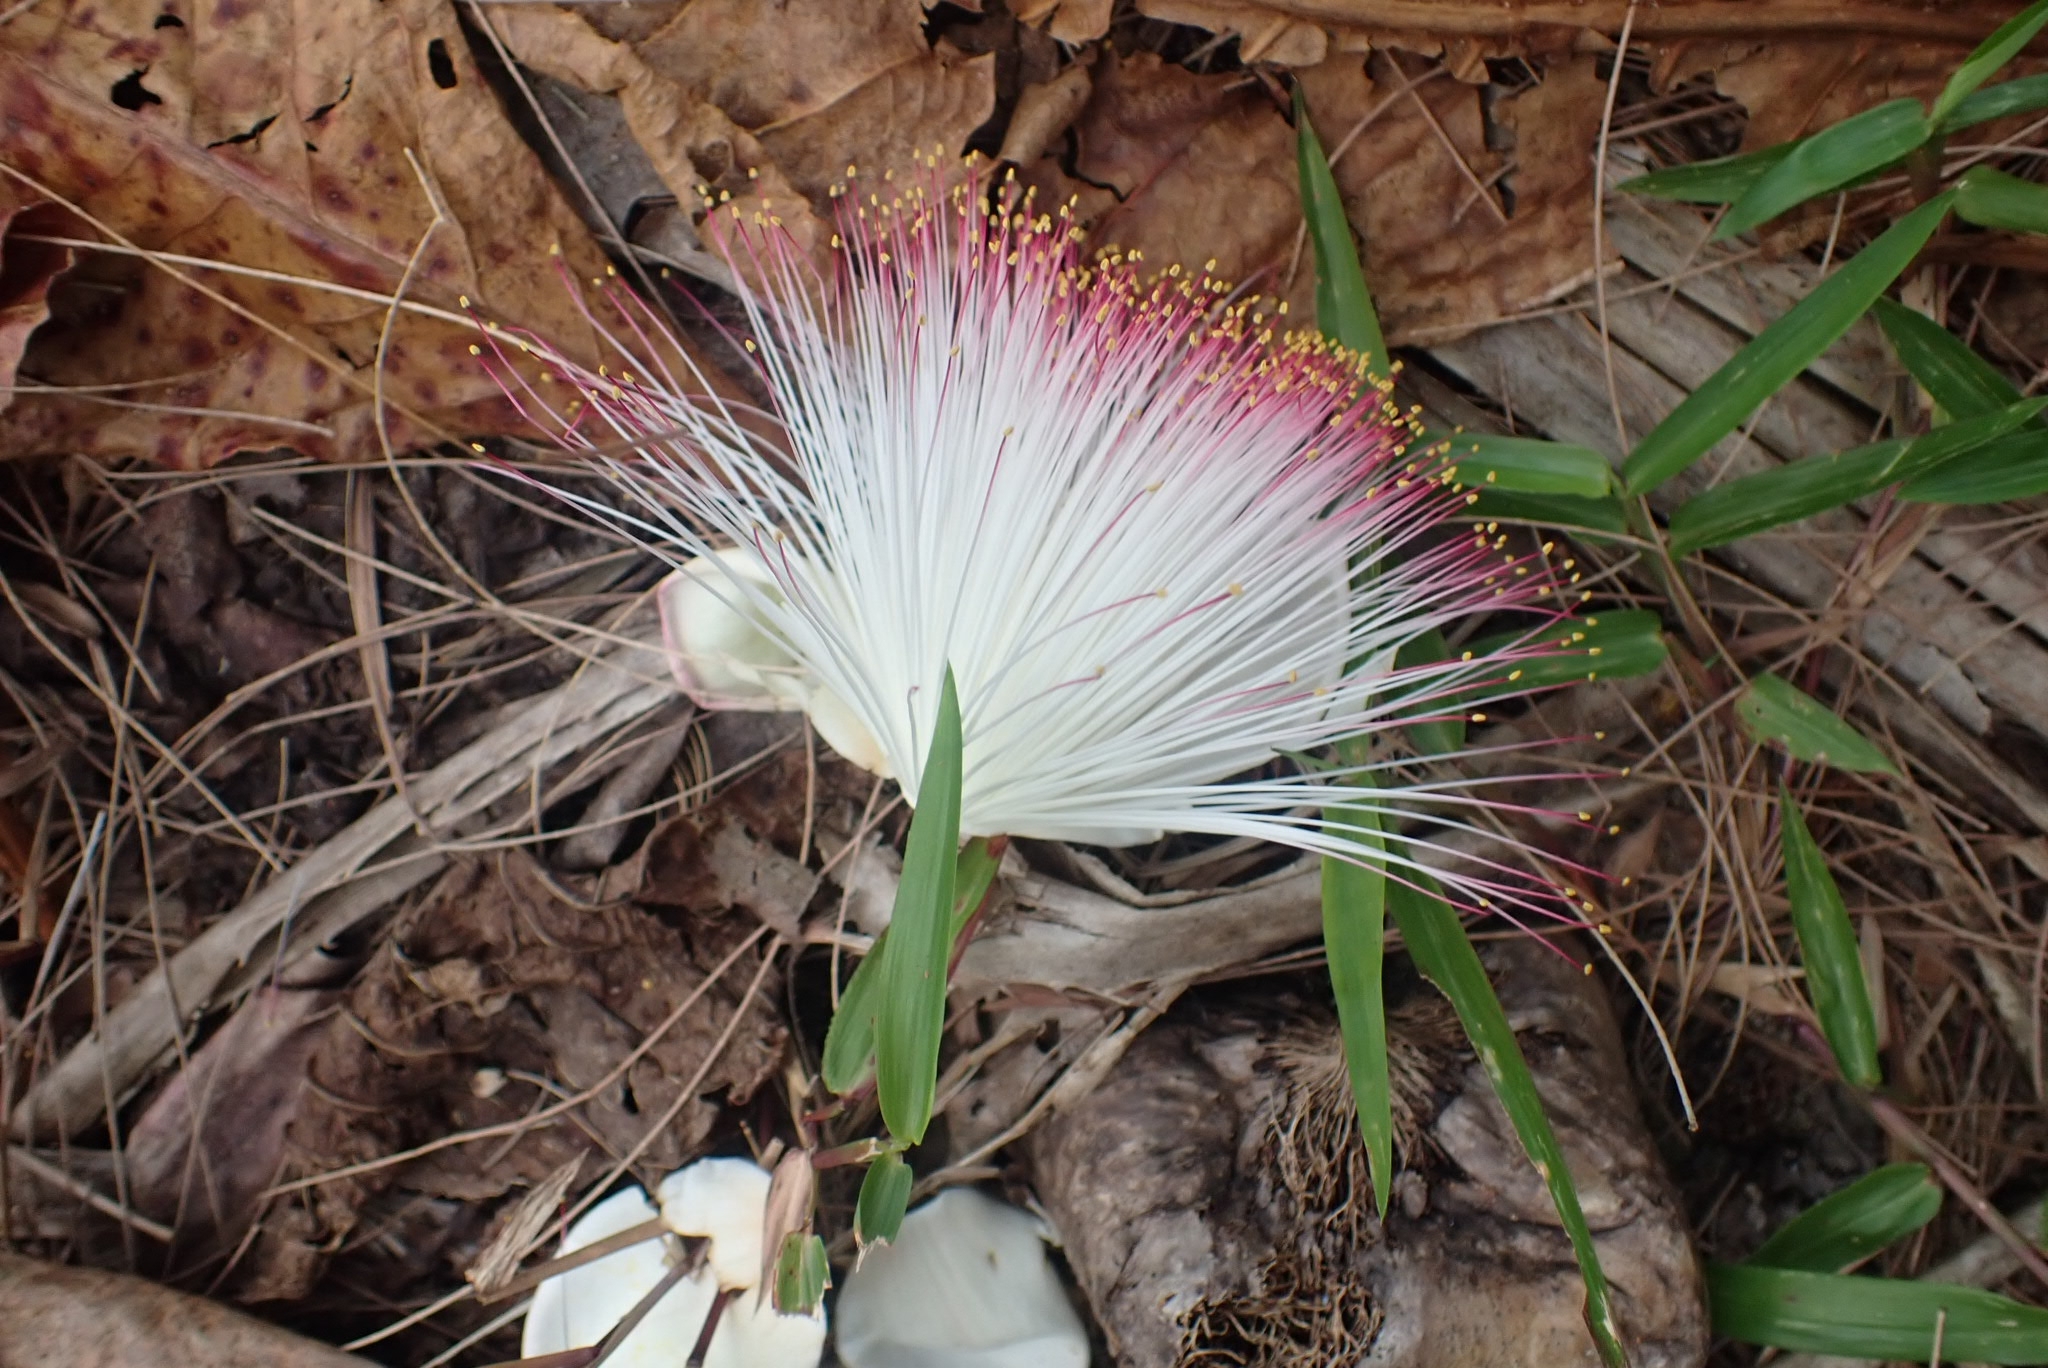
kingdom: Plantae
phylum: Tracheophyta
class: Magnoliopsida
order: Ericales
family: Lecythidaceae
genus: Barringtonia
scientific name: Barringtonia asiatica
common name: Mango-pine
